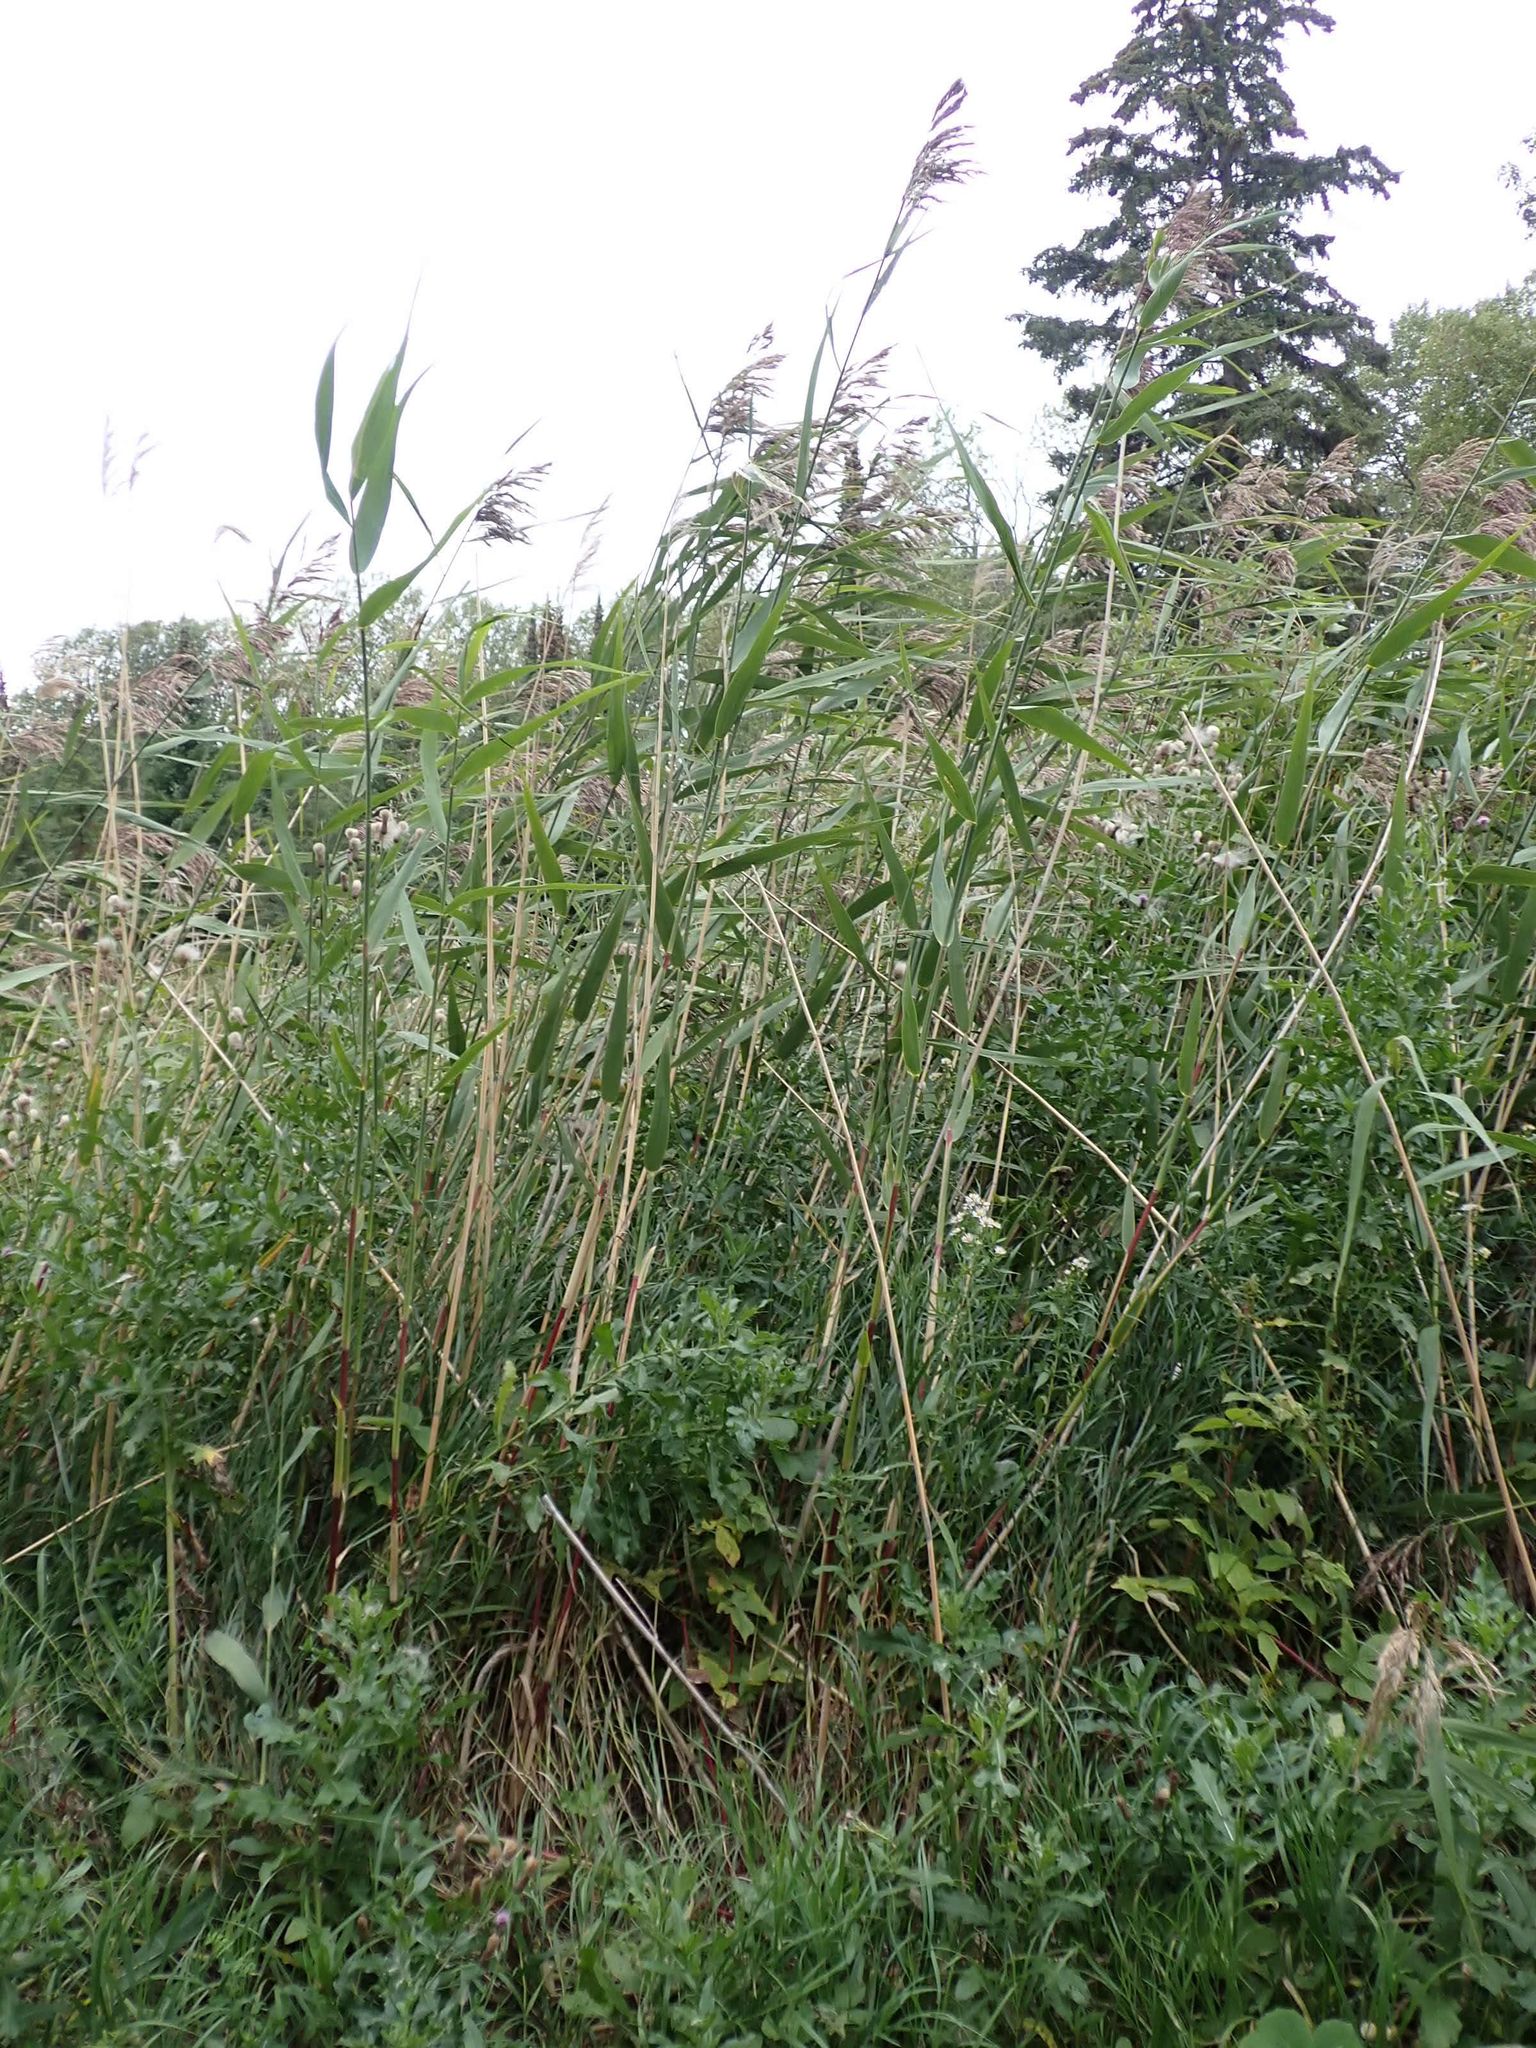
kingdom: Plantae
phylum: Tracheophyta
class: Liliopsida
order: Poales
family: Poaceae
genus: Phragmites
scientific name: Phragmites australis
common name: Common reed
